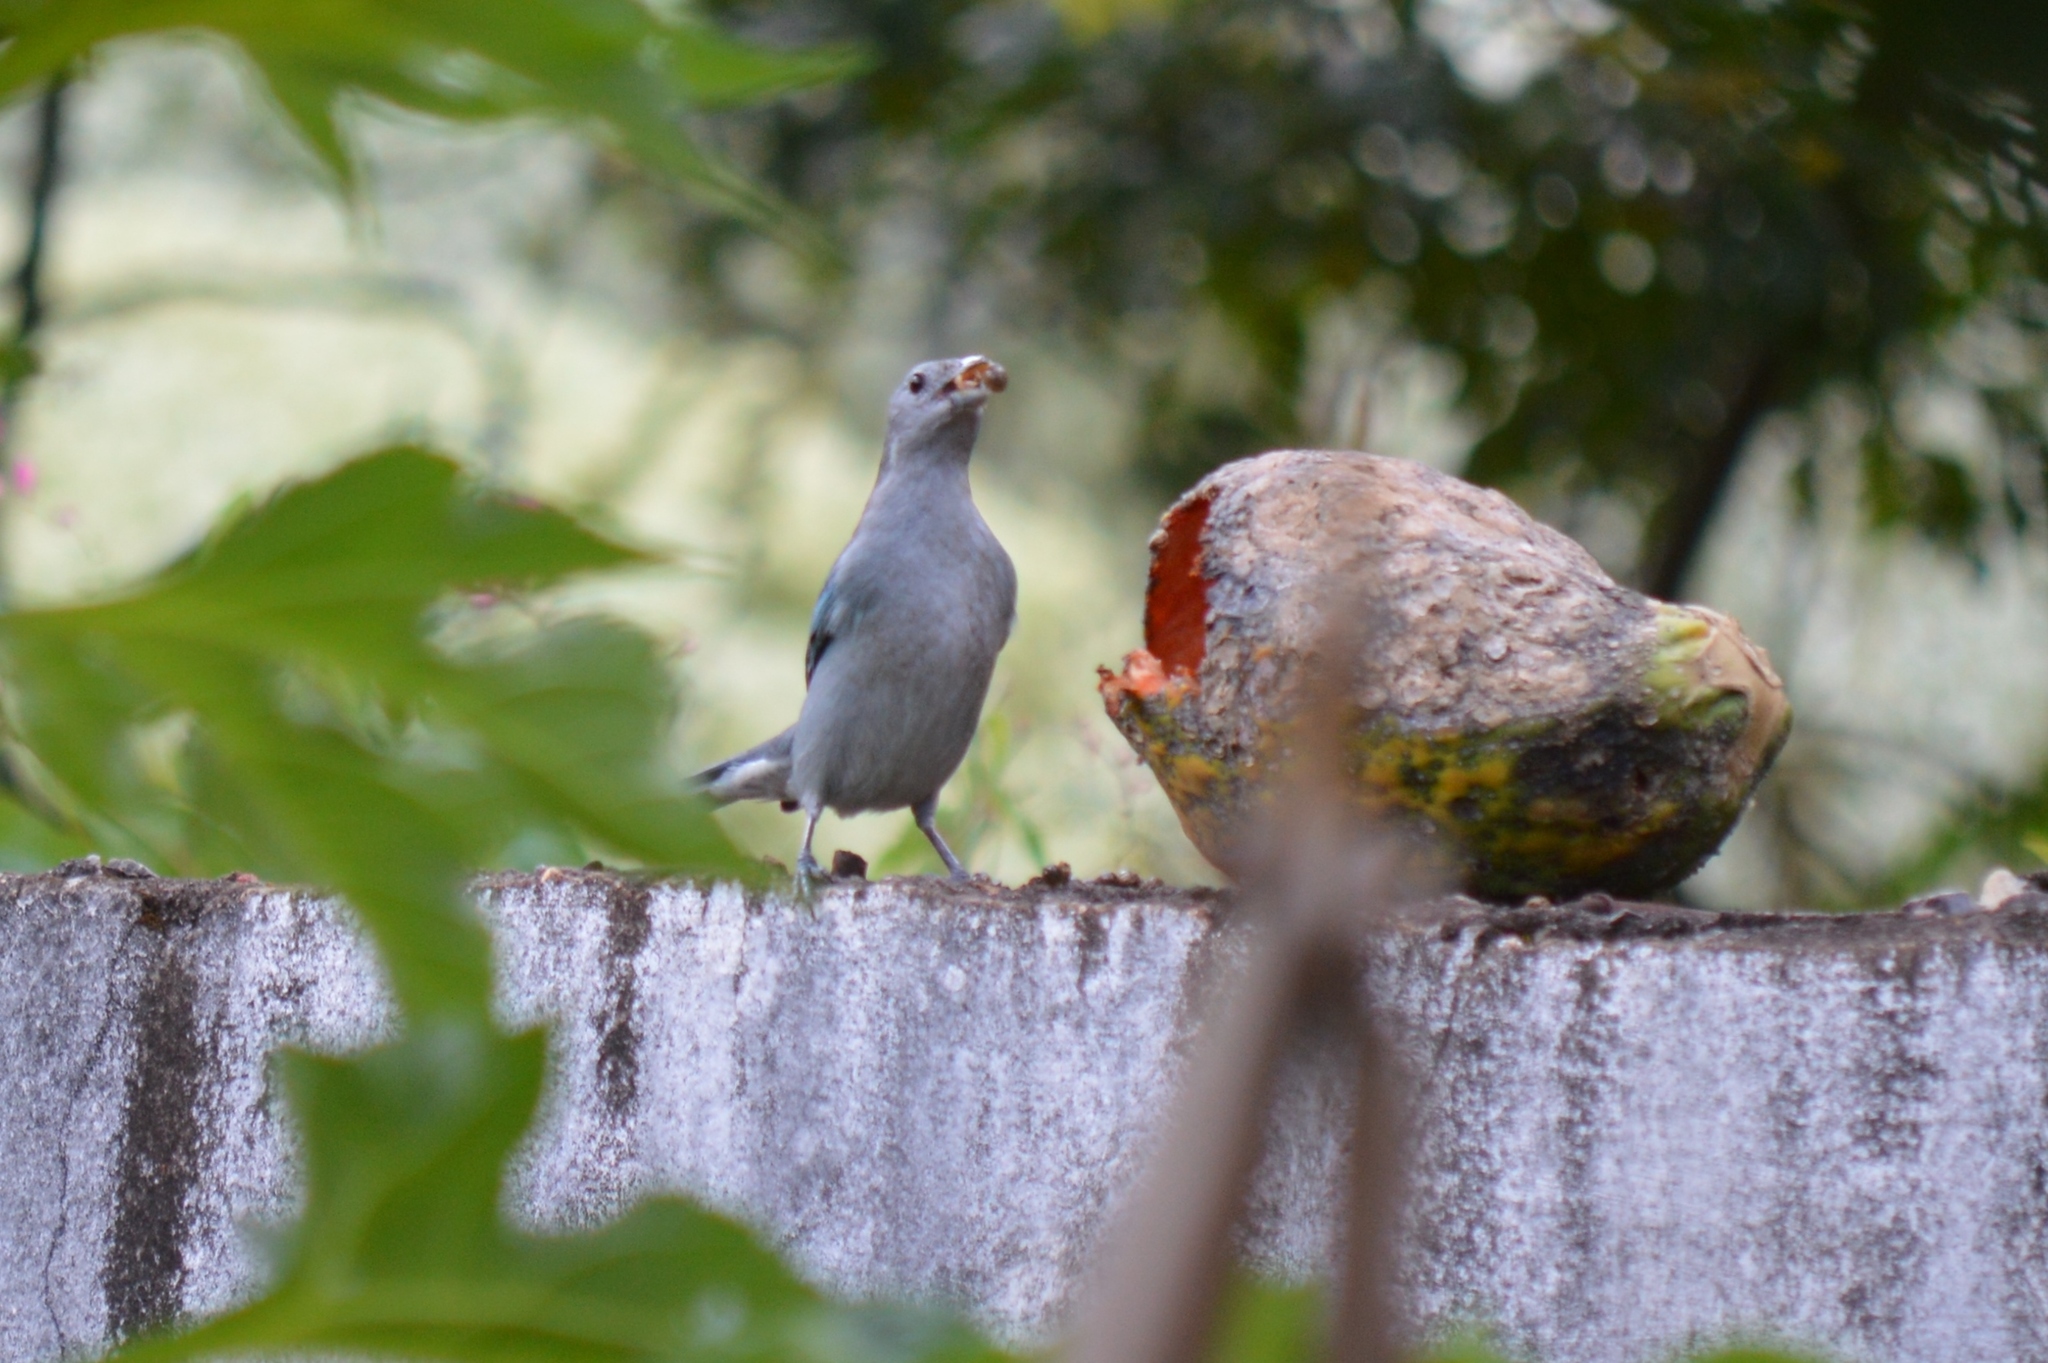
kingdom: Animalia
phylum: Chordata
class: Aves
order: Passeriformes
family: Thraupidae
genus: Thraupis
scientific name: Thraupis sayaca
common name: Sayaca tanager
